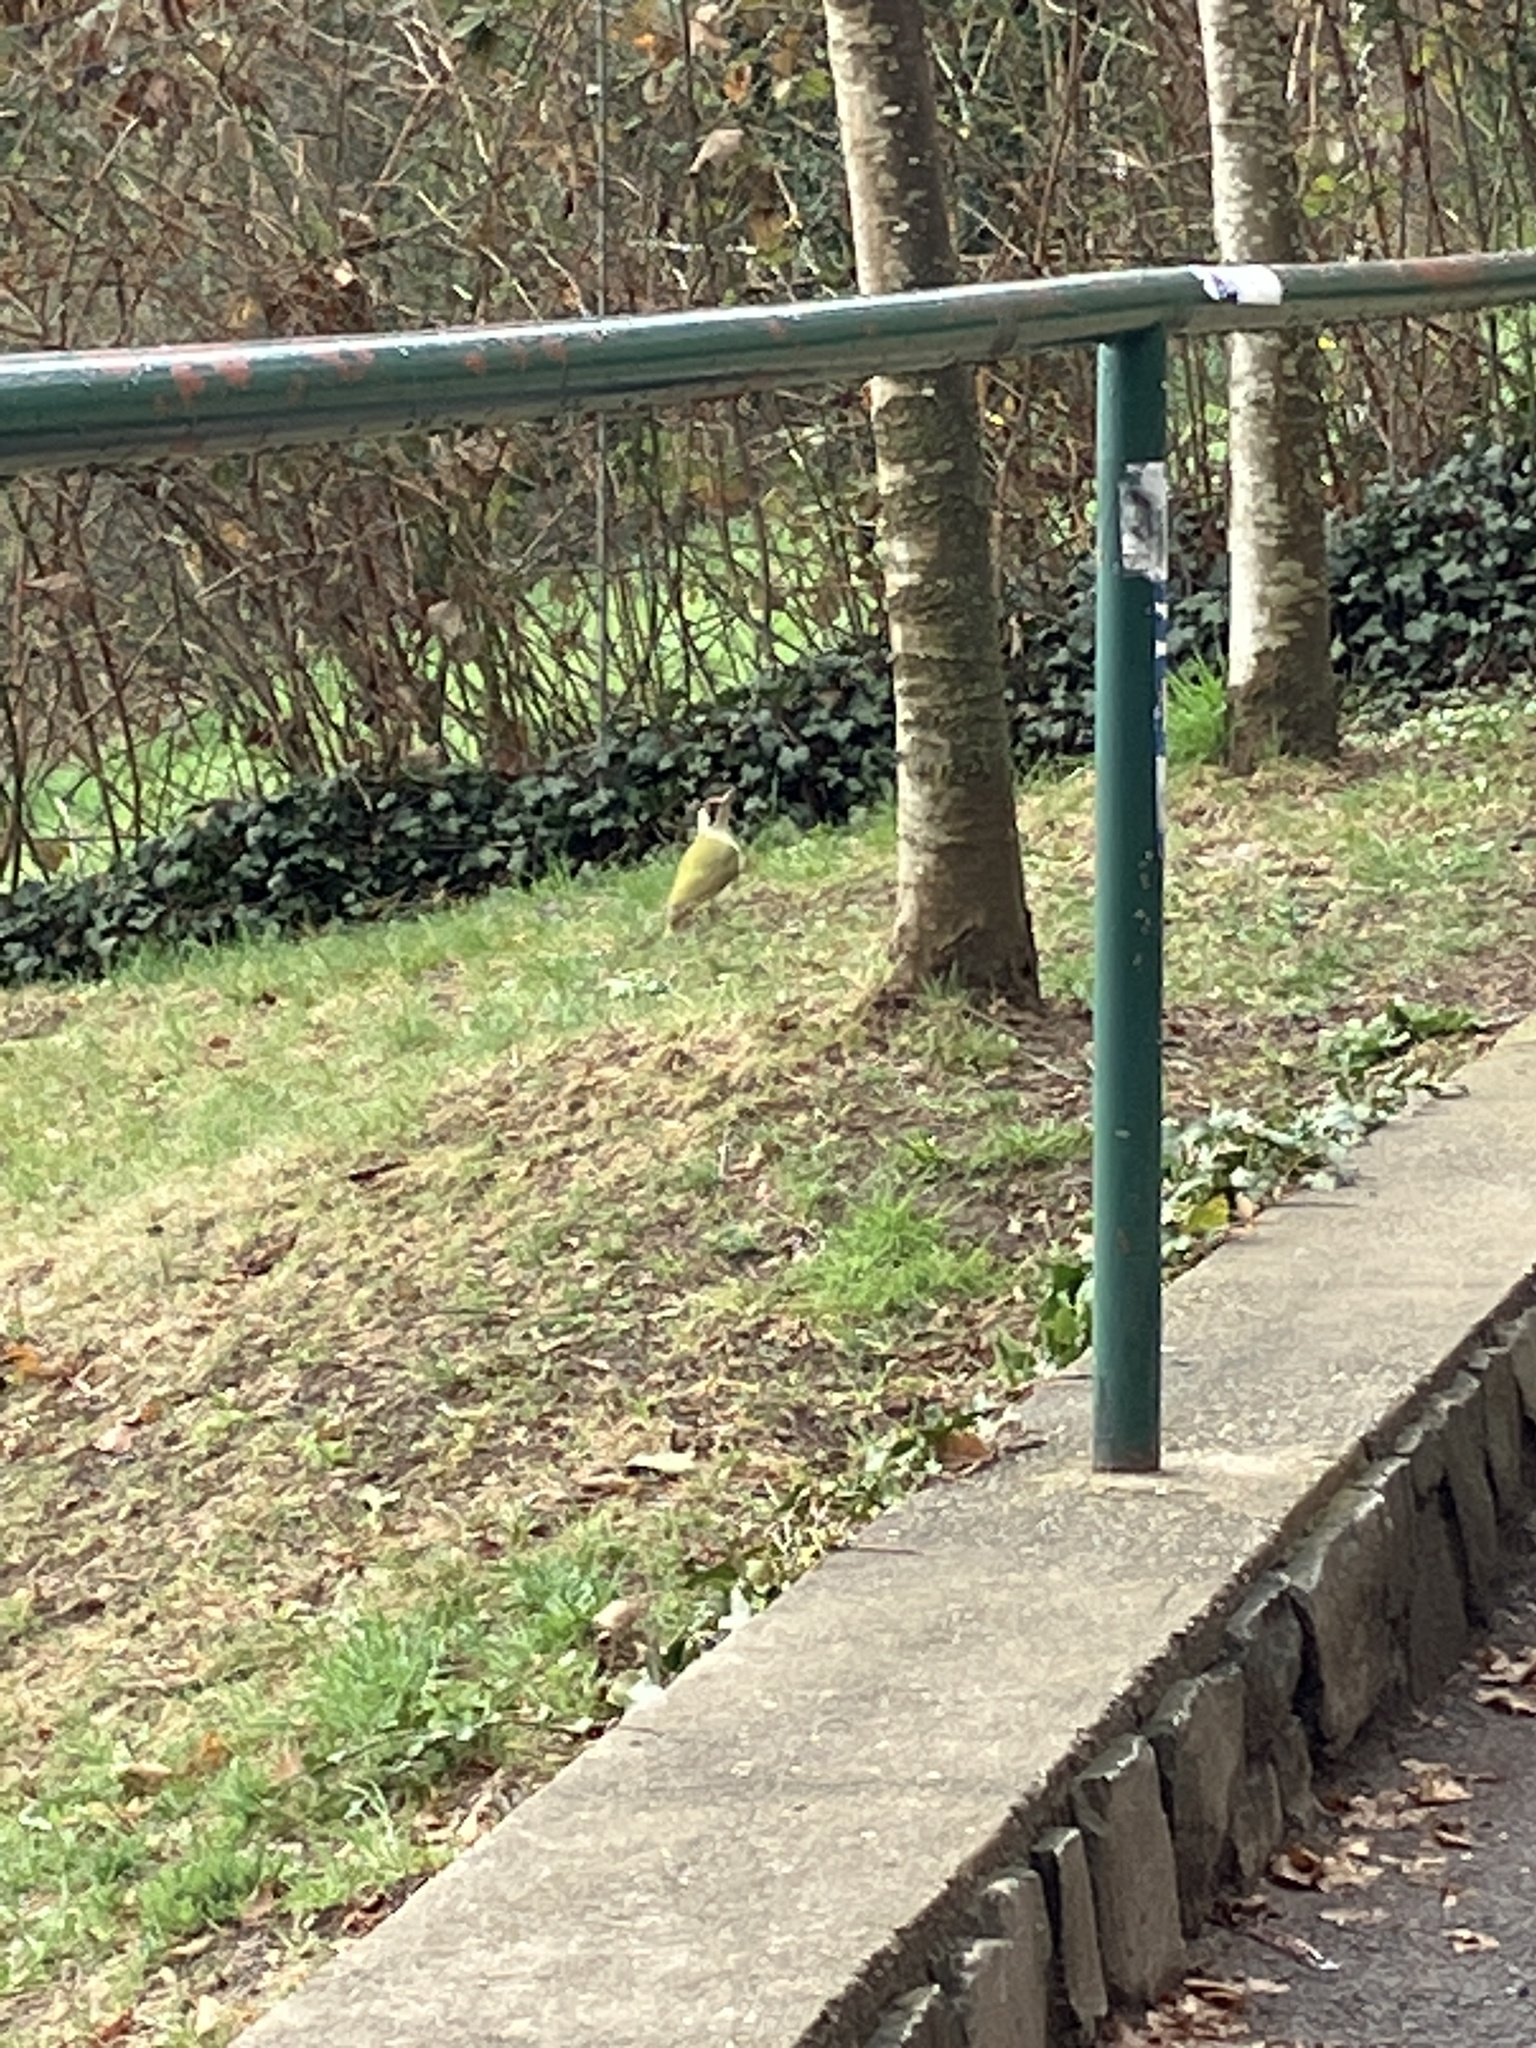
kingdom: Animalia
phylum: Chordata
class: Aves
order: Piciformes
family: Picidae
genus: Picus
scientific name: Picus viridis
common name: European green woodpecker
